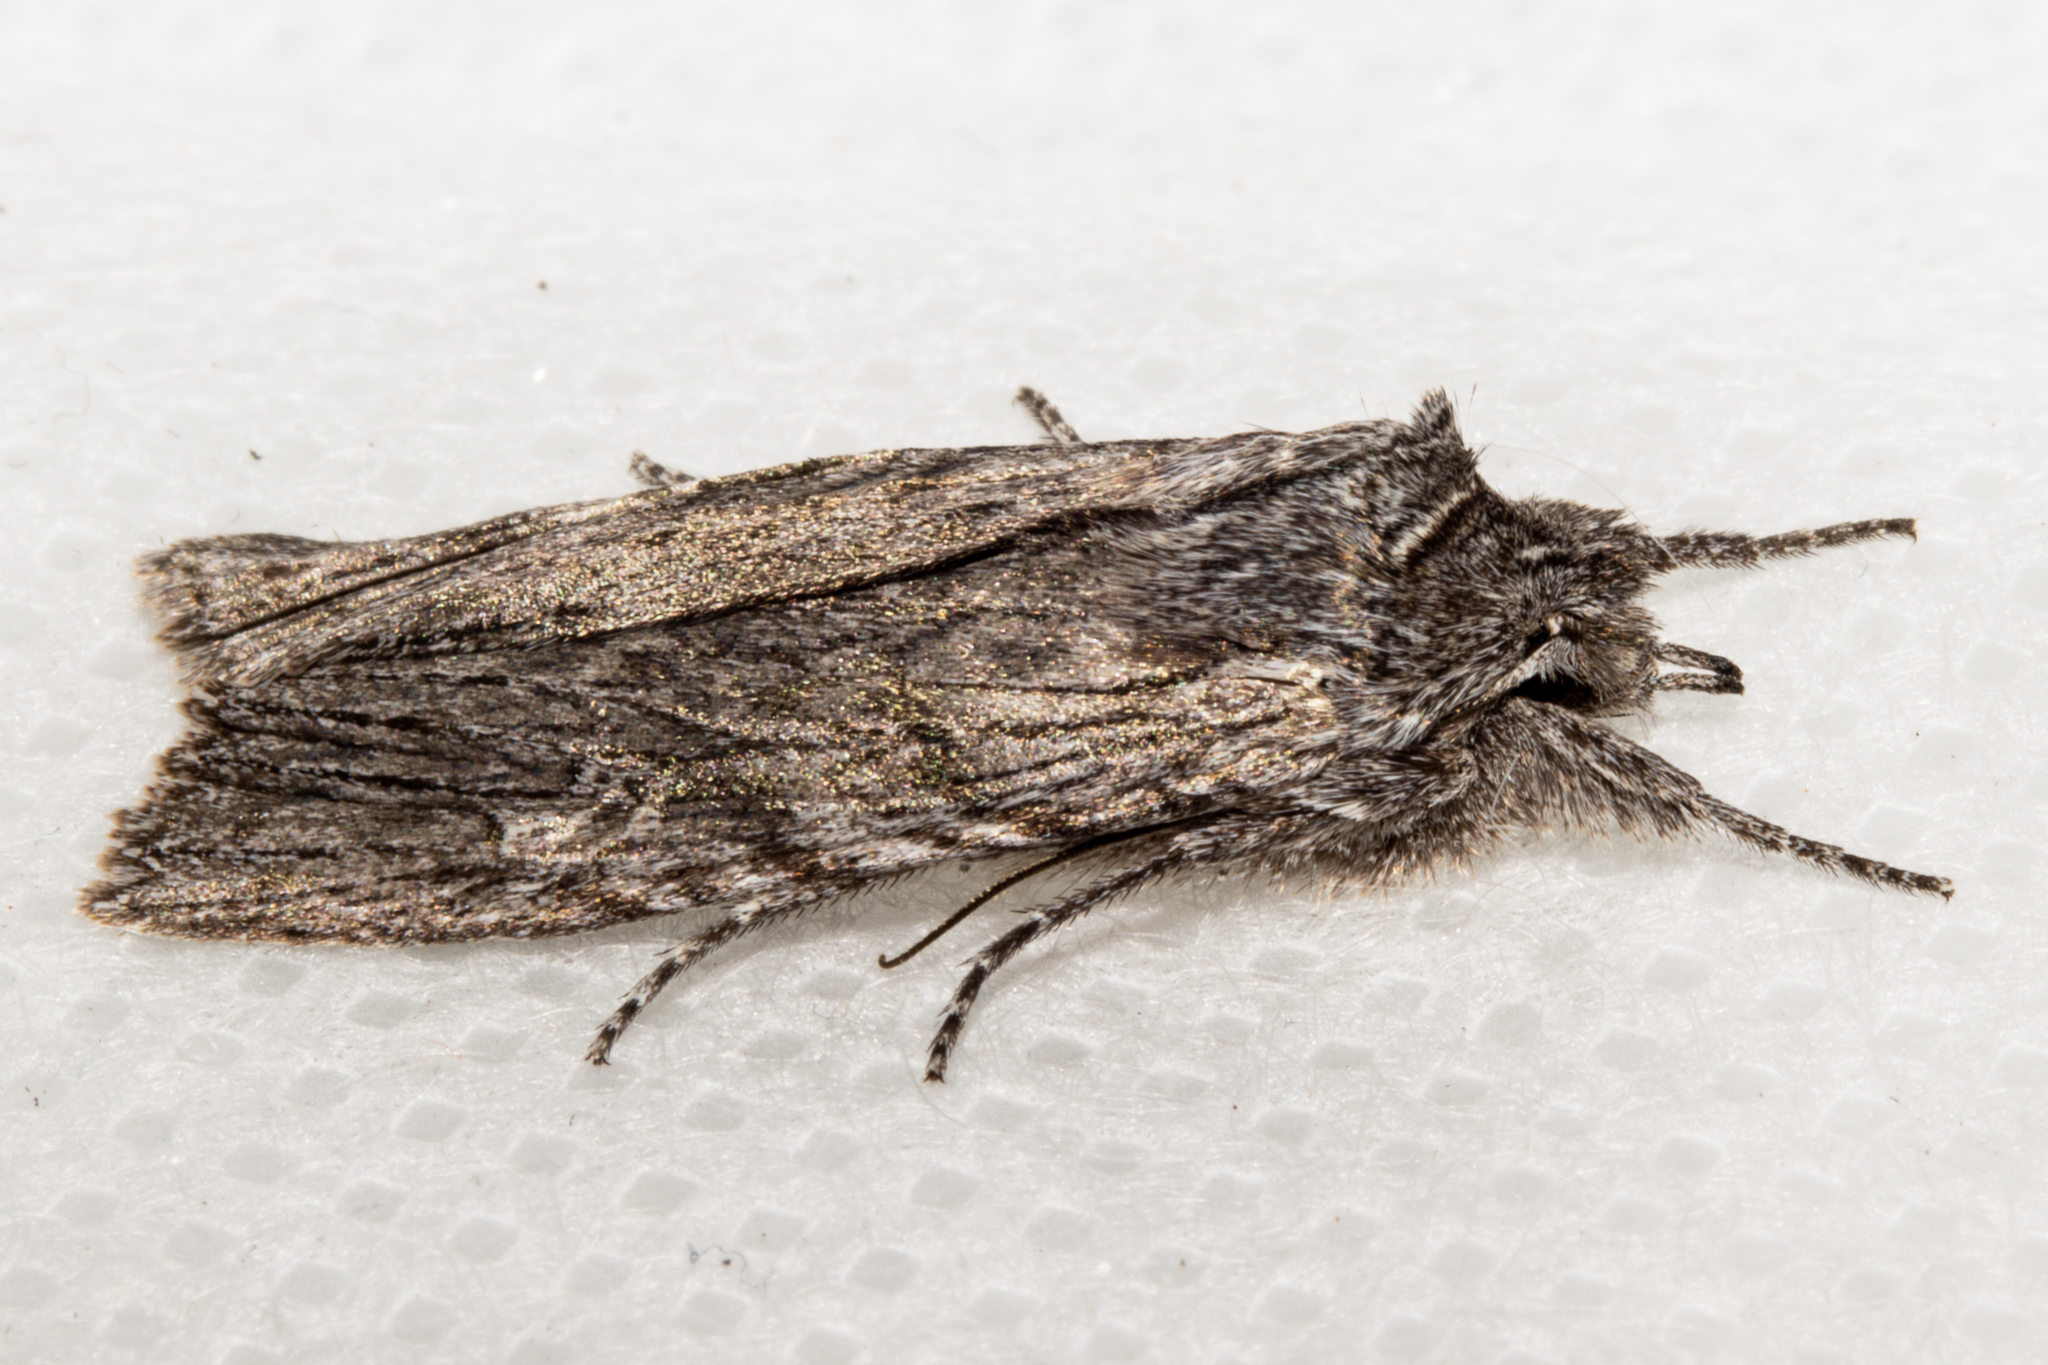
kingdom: Animalia
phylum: Arthropoda
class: Insecta
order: Lepidoptera
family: Noctuidae
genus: Physetica
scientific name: Physetica phricias
